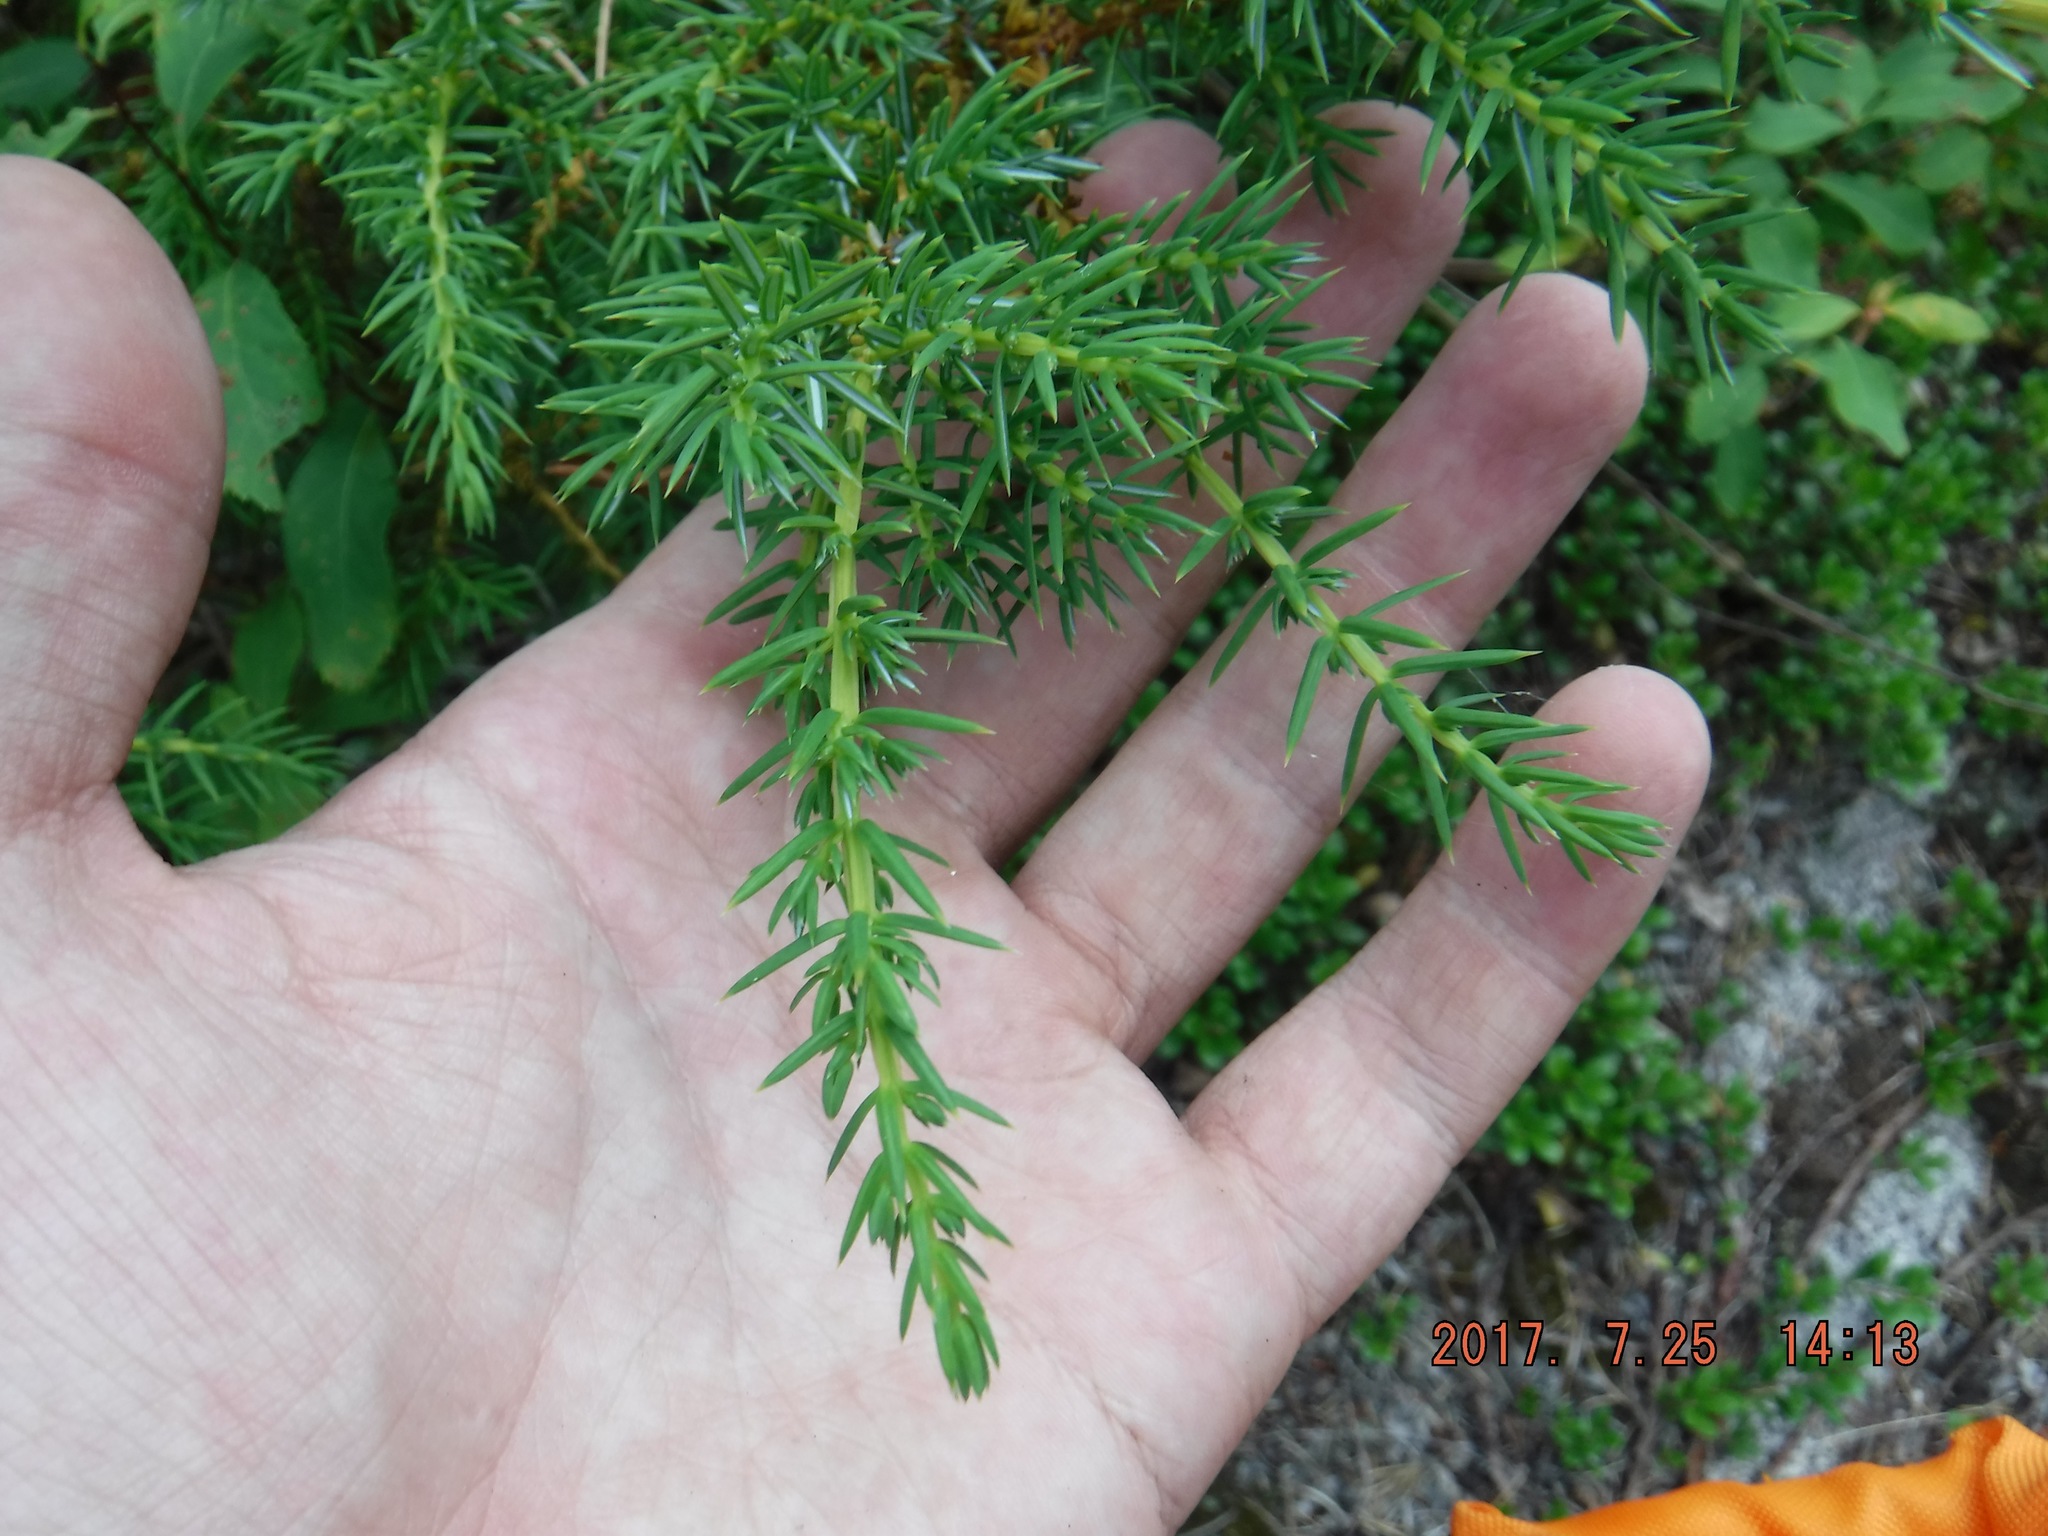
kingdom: Plantae
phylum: Tracheophyta
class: Pinopsida
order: Pinales
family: Cupressaceae
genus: Juniperus
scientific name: Juniperus communis
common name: Common juniper
